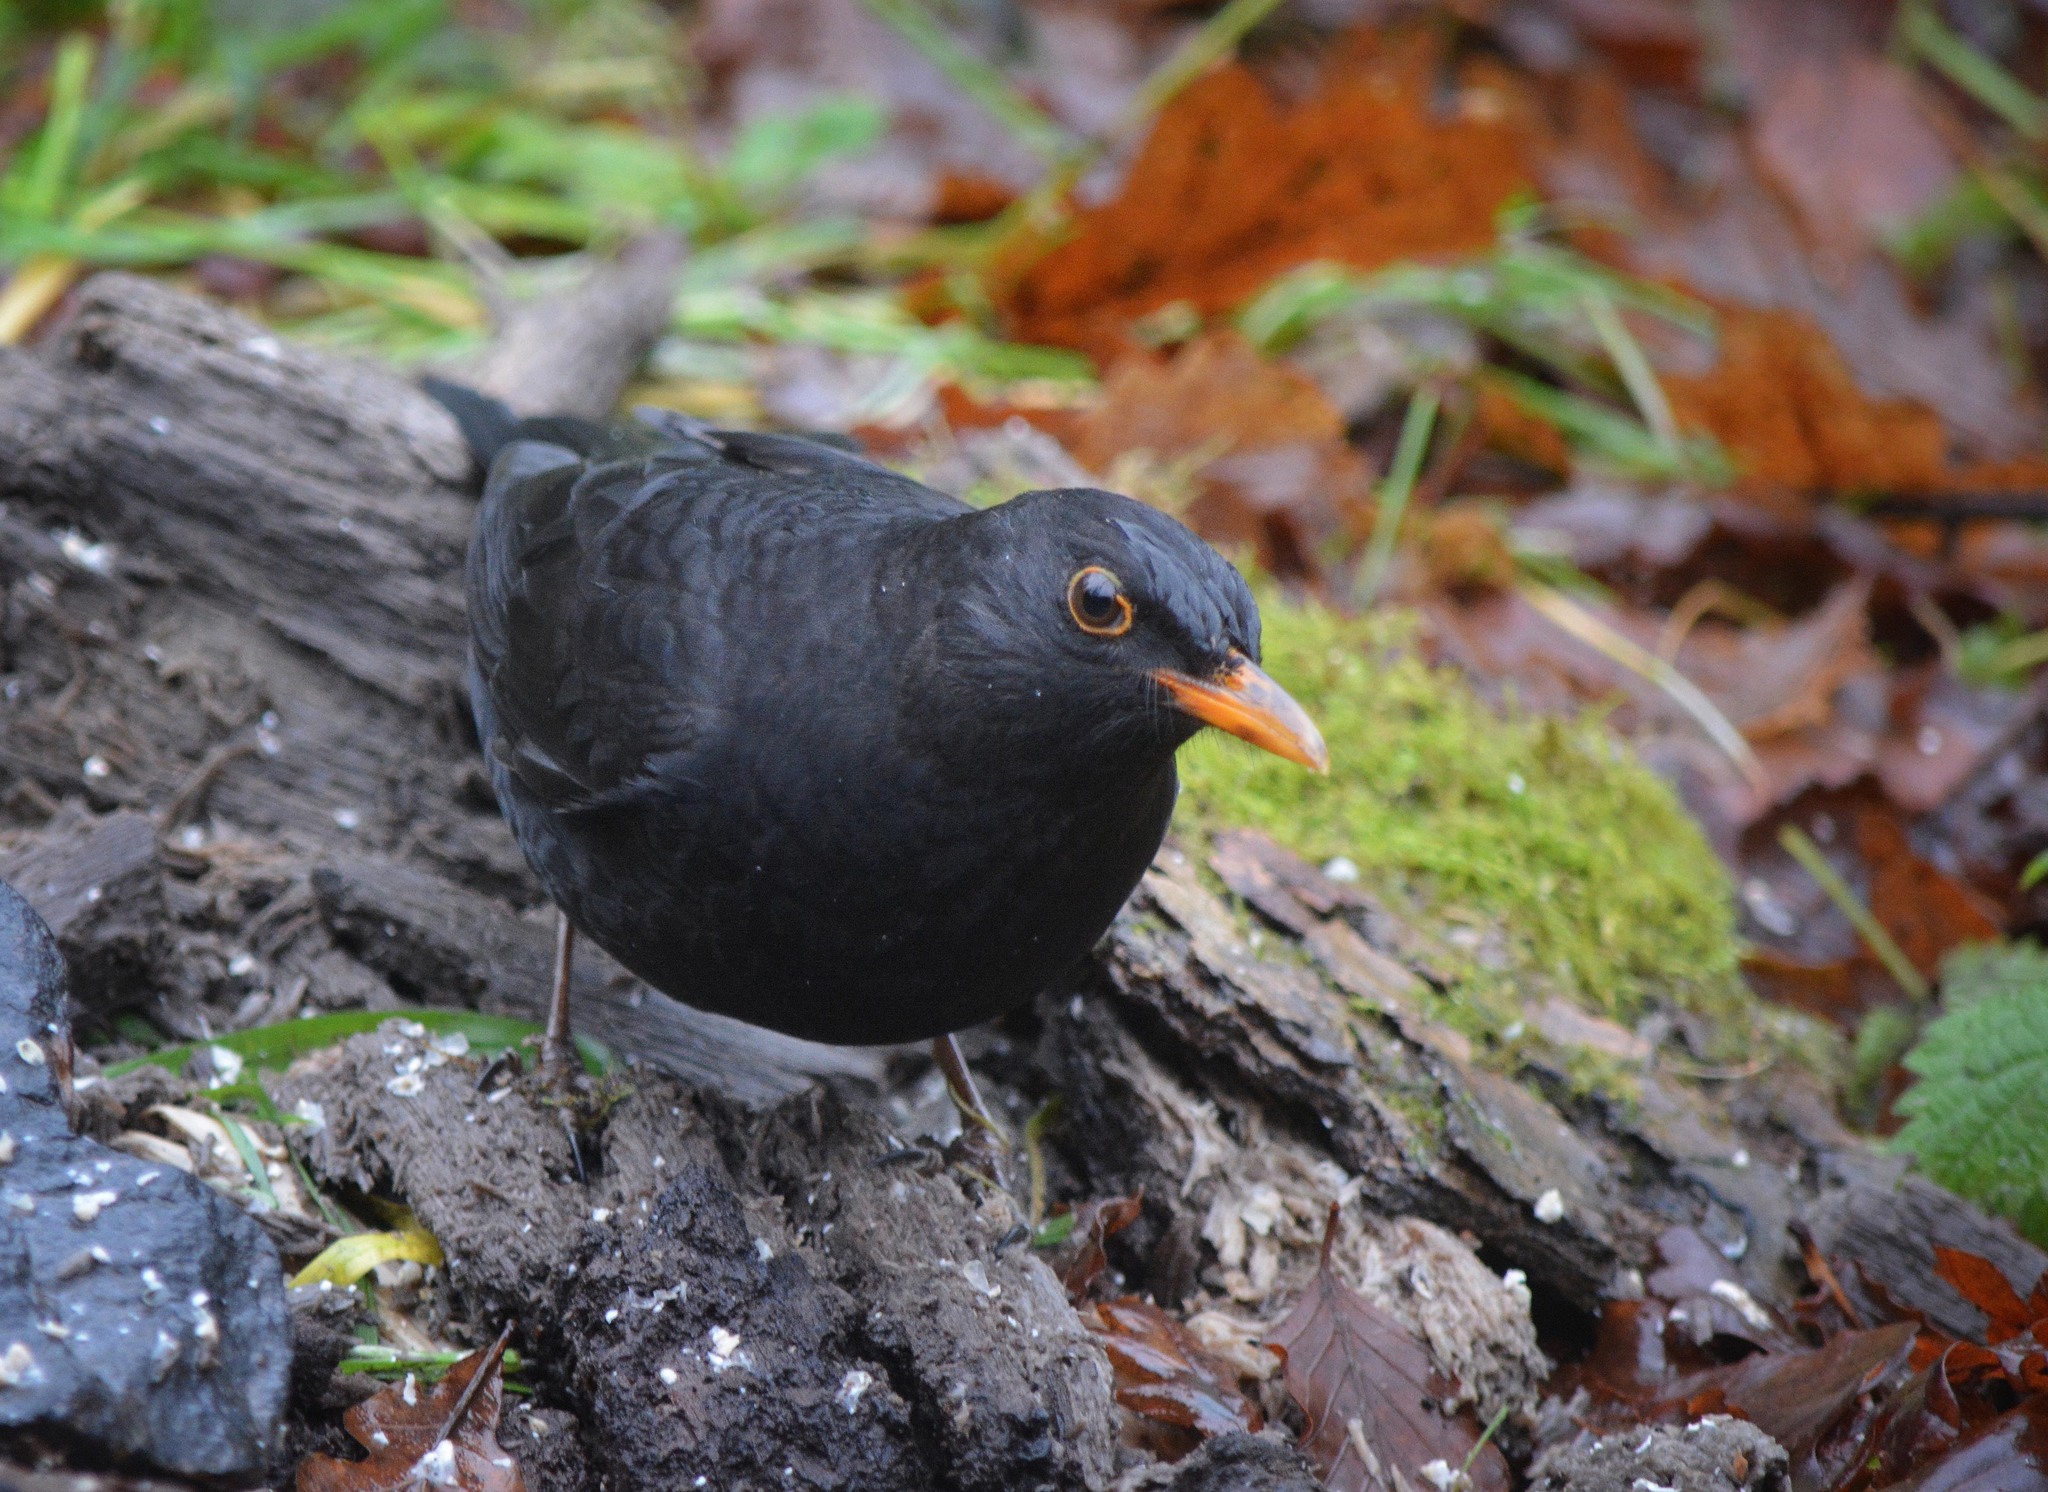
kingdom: Animalia
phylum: Chordata
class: Aves
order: Passeriformes
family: Turdidae
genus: Turdus
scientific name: Turdus merula
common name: Common blackbird
